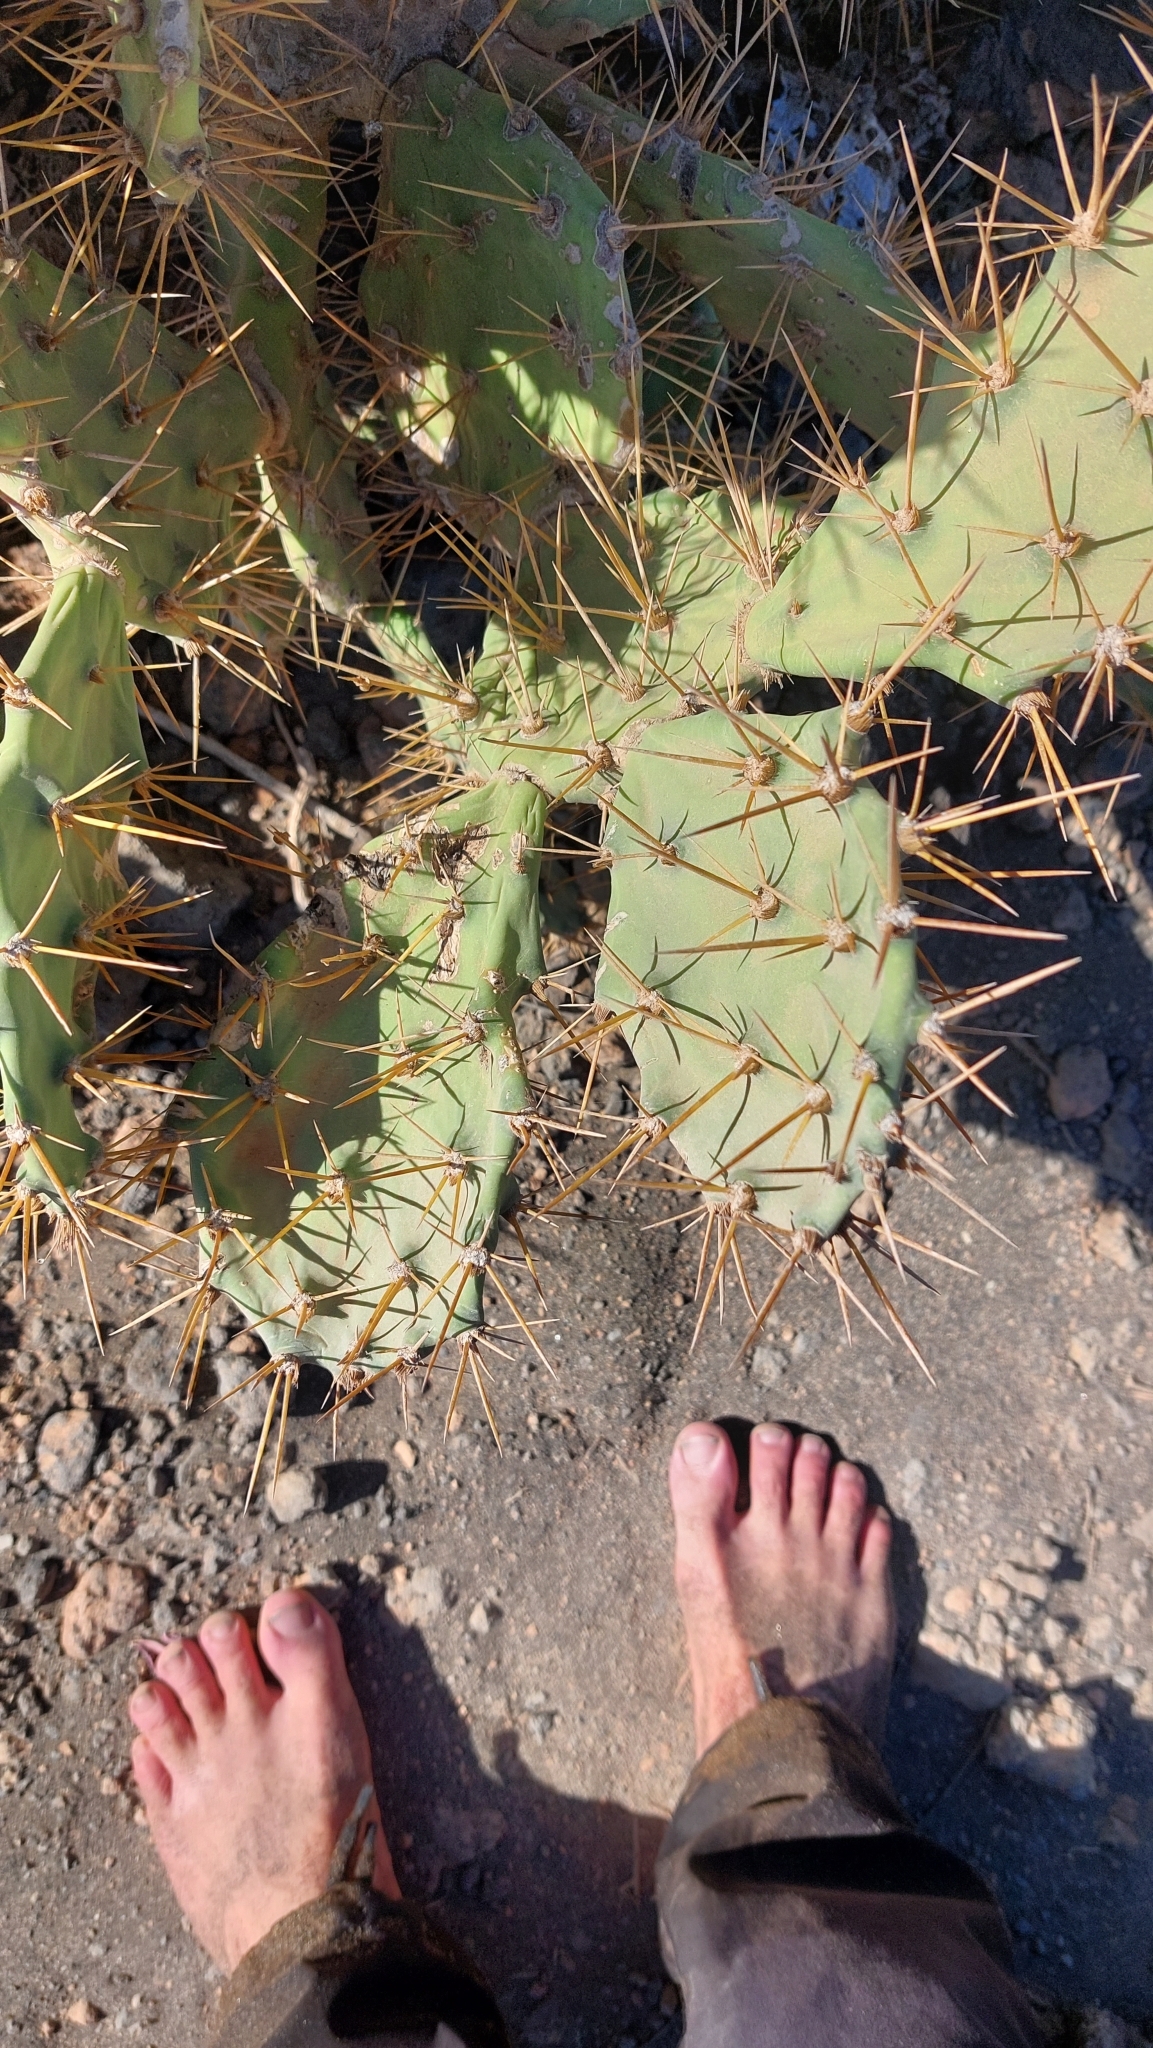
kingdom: Plantae
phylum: Tracheophyta
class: Magnoliopsida
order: Caryophyllales
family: Cactaceae
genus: Opuntia
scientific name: Opuntia stricta
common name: Erect pricklypear
